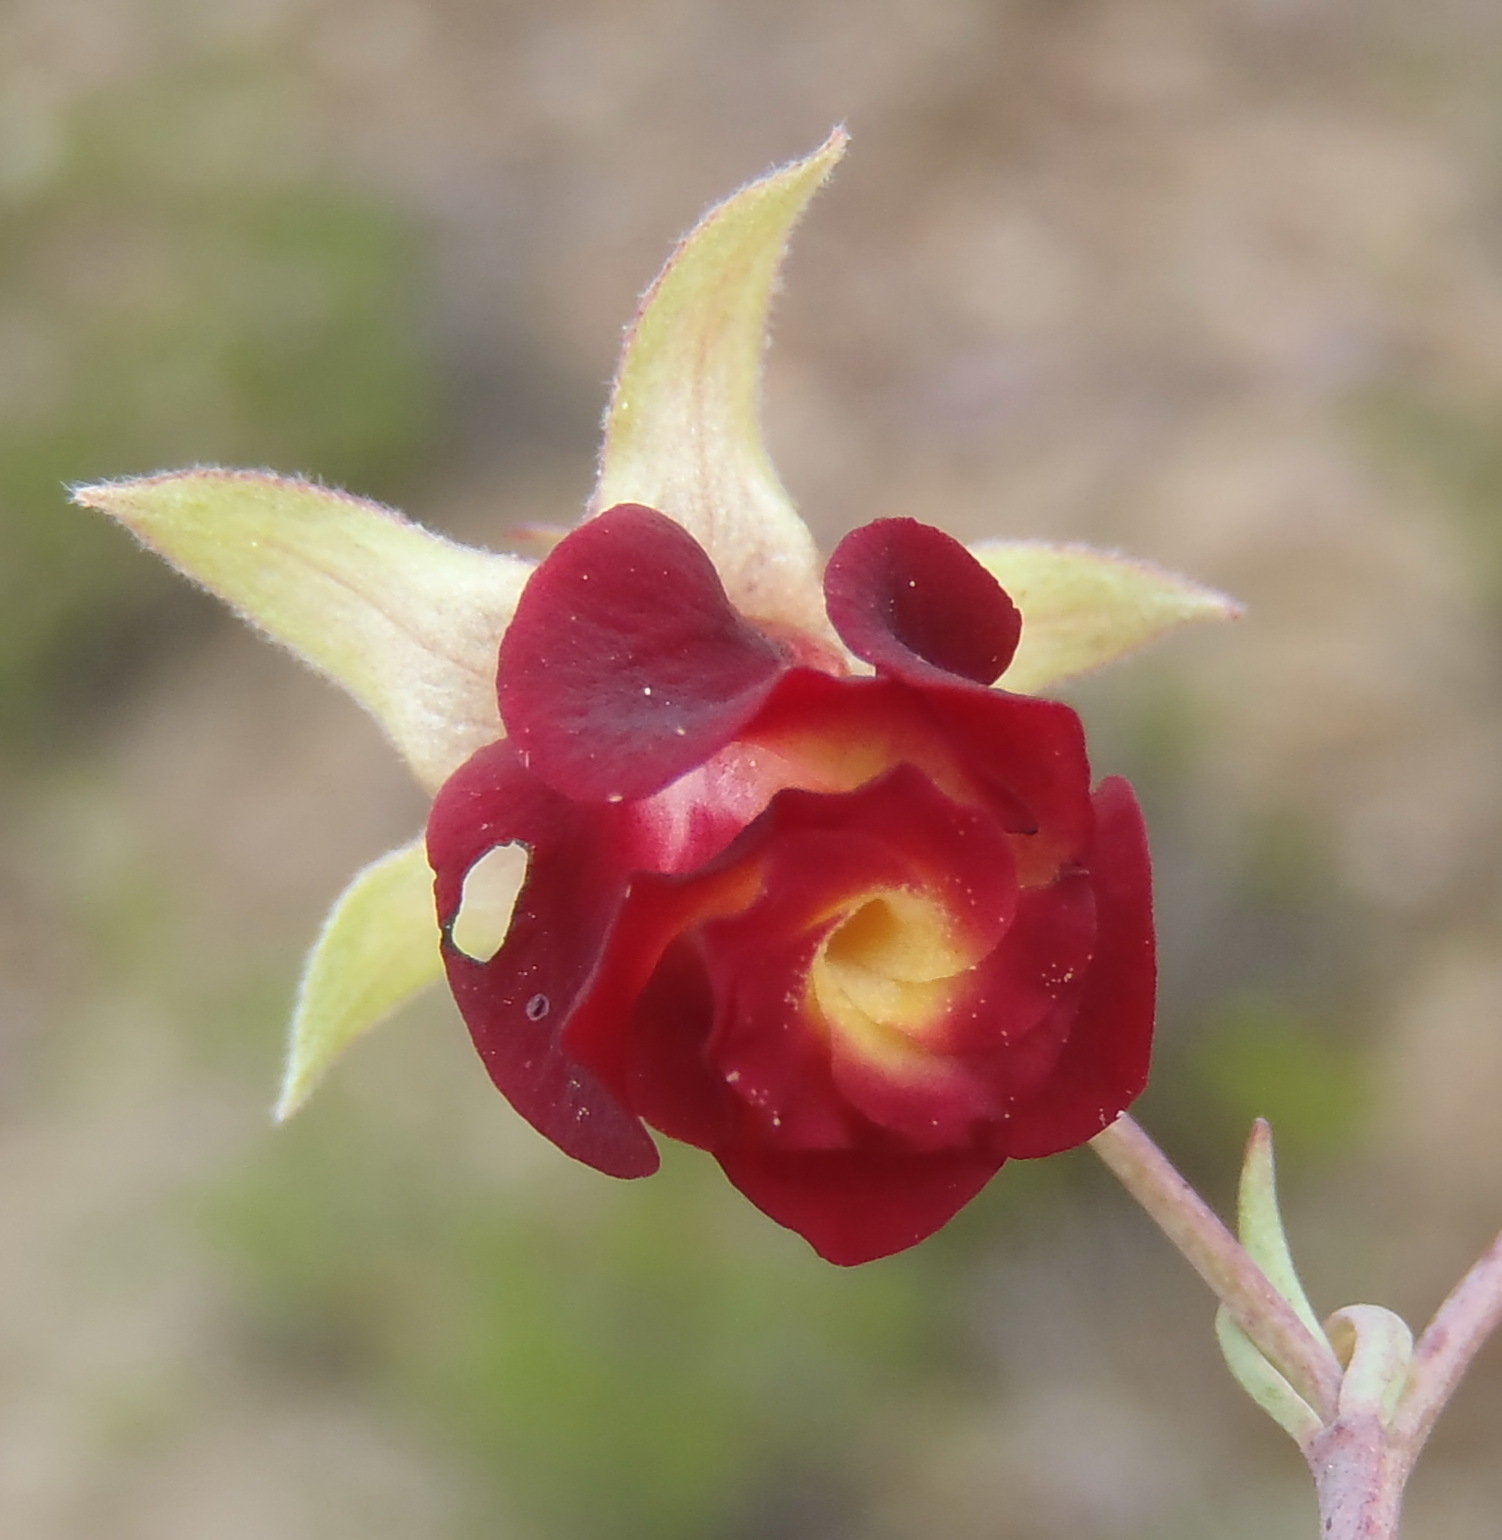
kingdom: Plantae
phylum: Tracheophyta
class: Magnoliopsida
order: Malvales
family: Malvaceae
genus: Hermannia
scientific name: Hermannia filifolia
